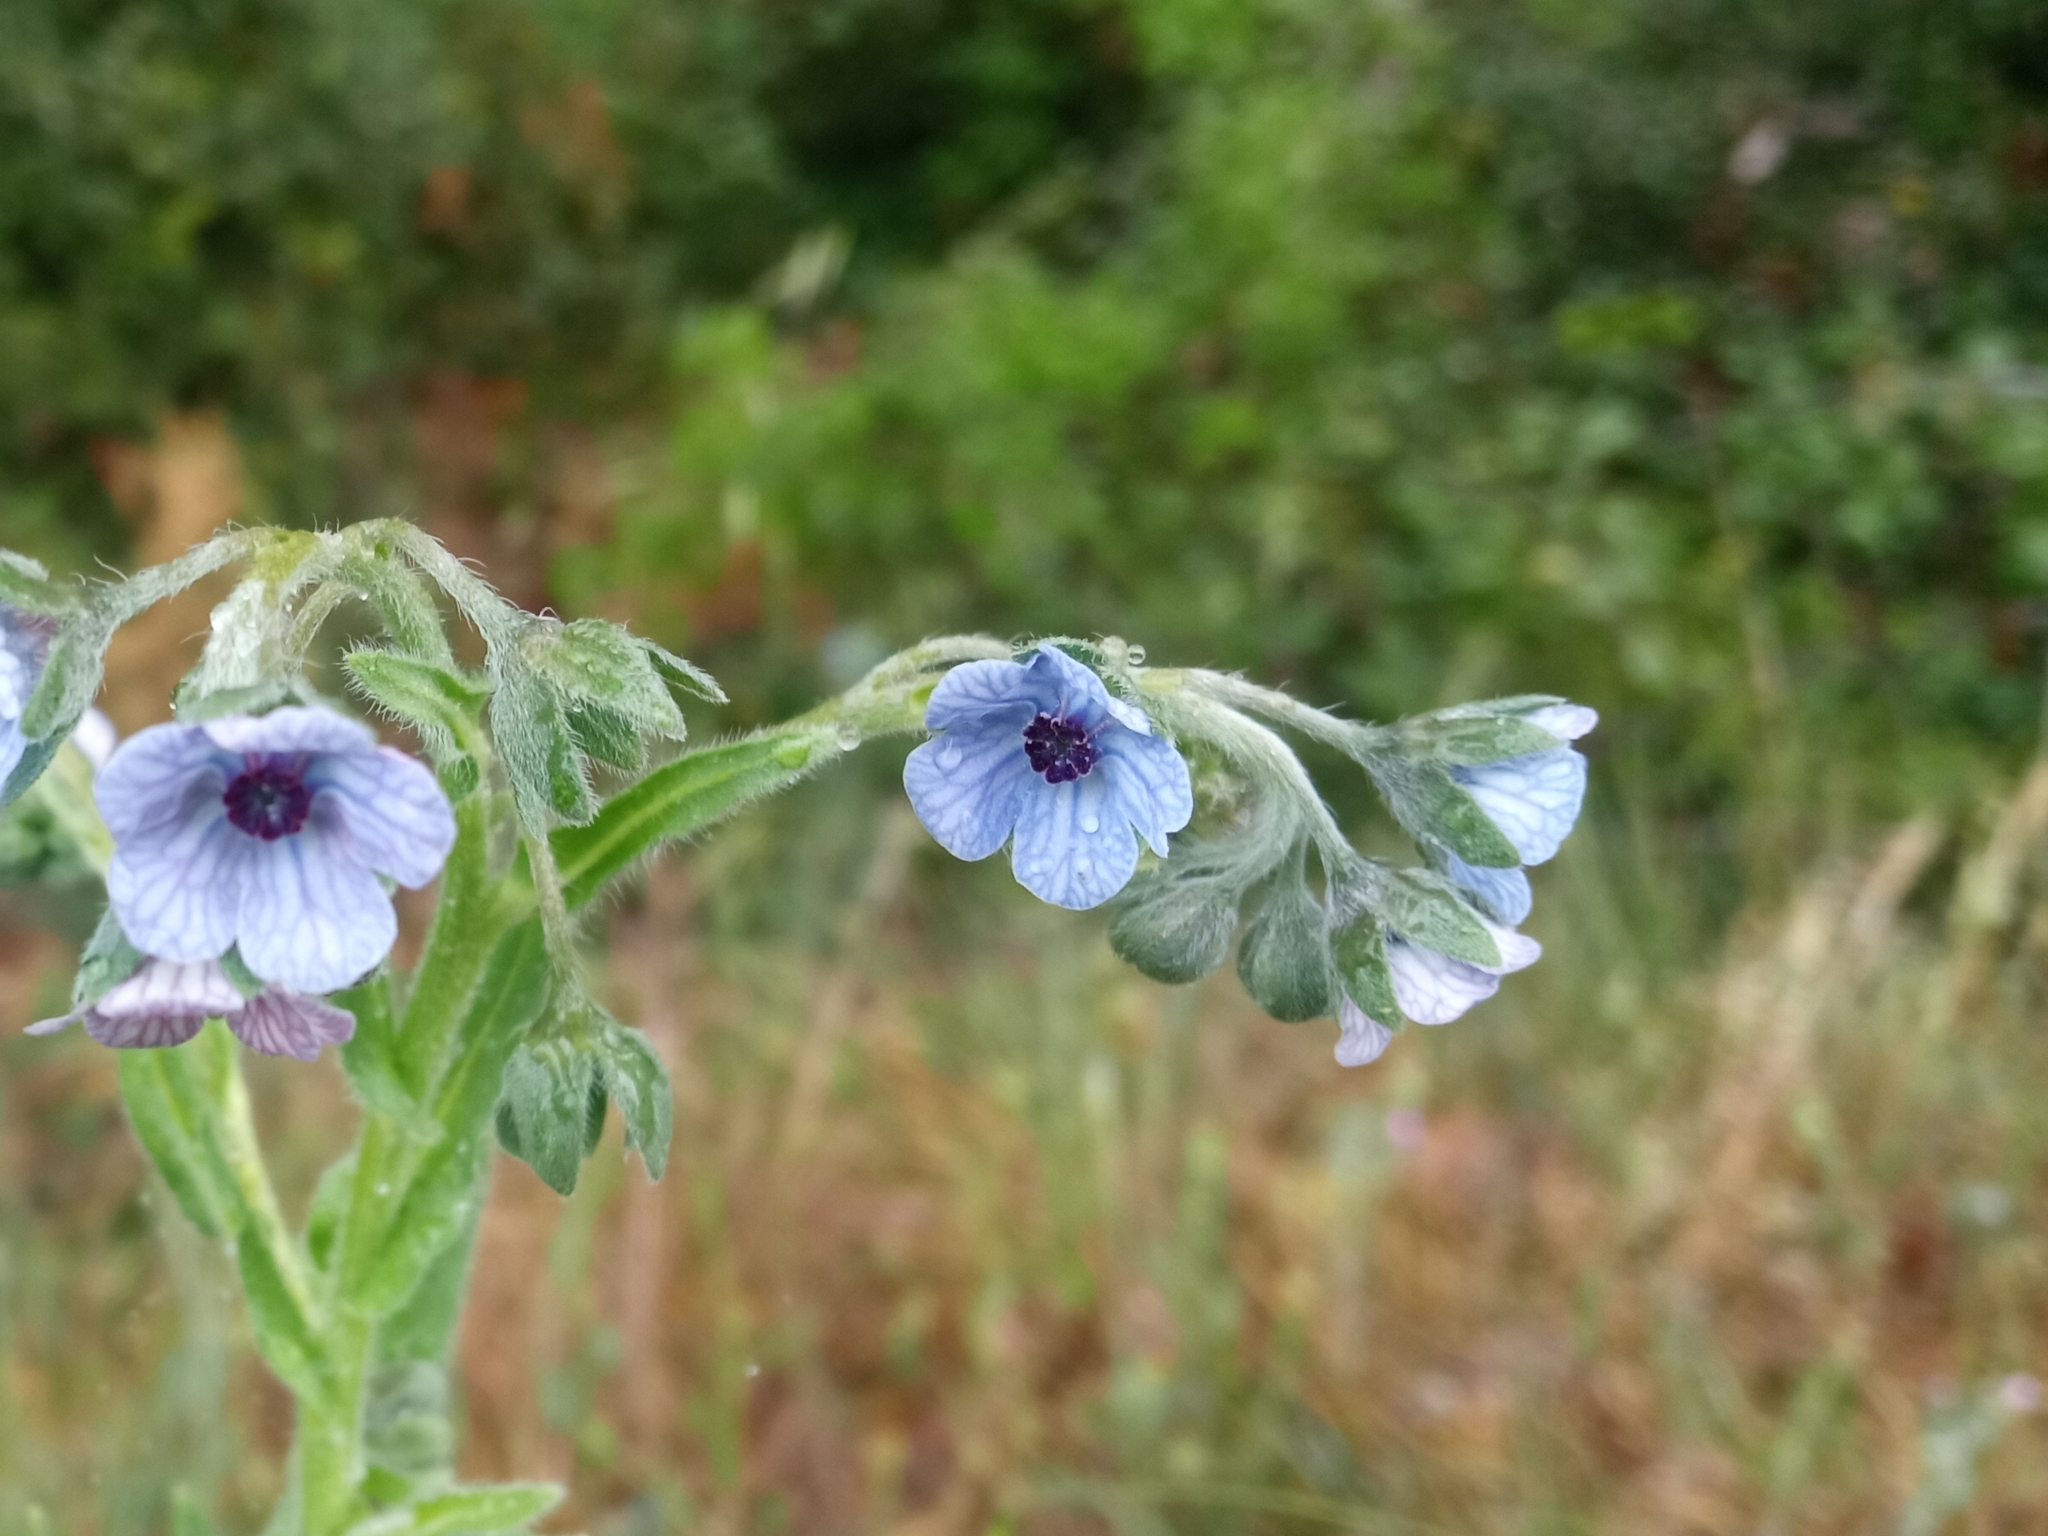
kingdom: Plantae
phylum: Tracheophyta
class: Magnoliopsida
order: Boraginales
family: Boraginaceae
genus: Cynoglossum
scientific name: Cynoglossum creticum
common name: Blue hound's tongue
